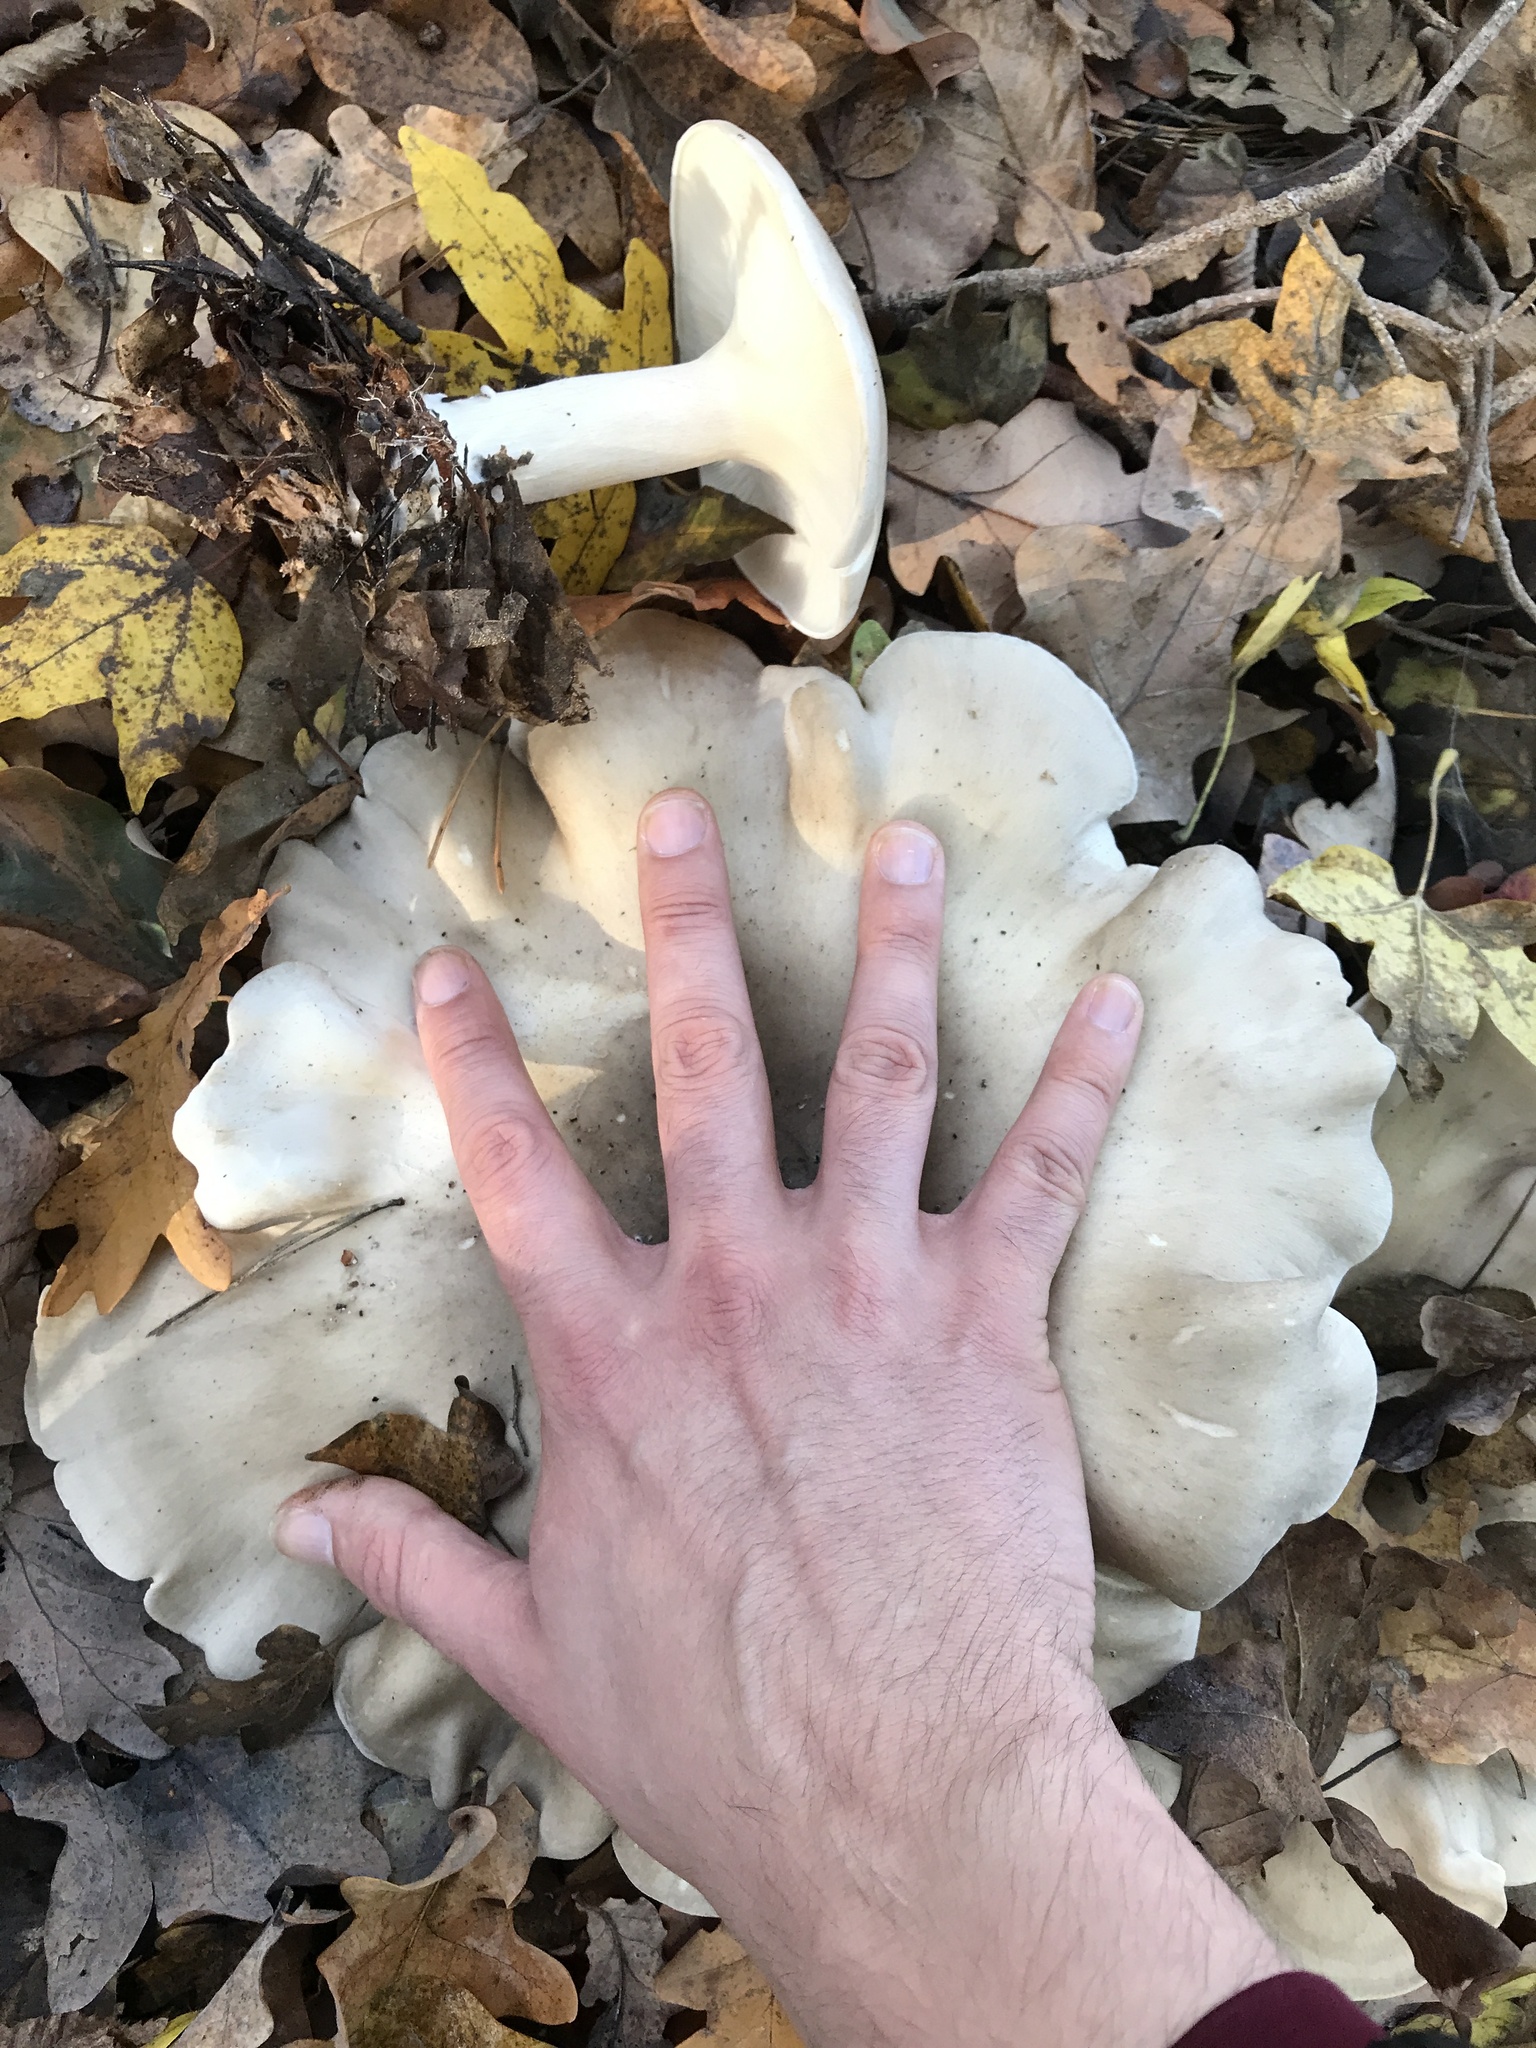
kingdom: Fungi
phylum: Basidiomycota
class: Agaricomycetes
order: Agaricales
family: Tricholomataceae
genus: Clitocybe
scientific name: Clitocybe nebularis
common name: Clouded agaric
